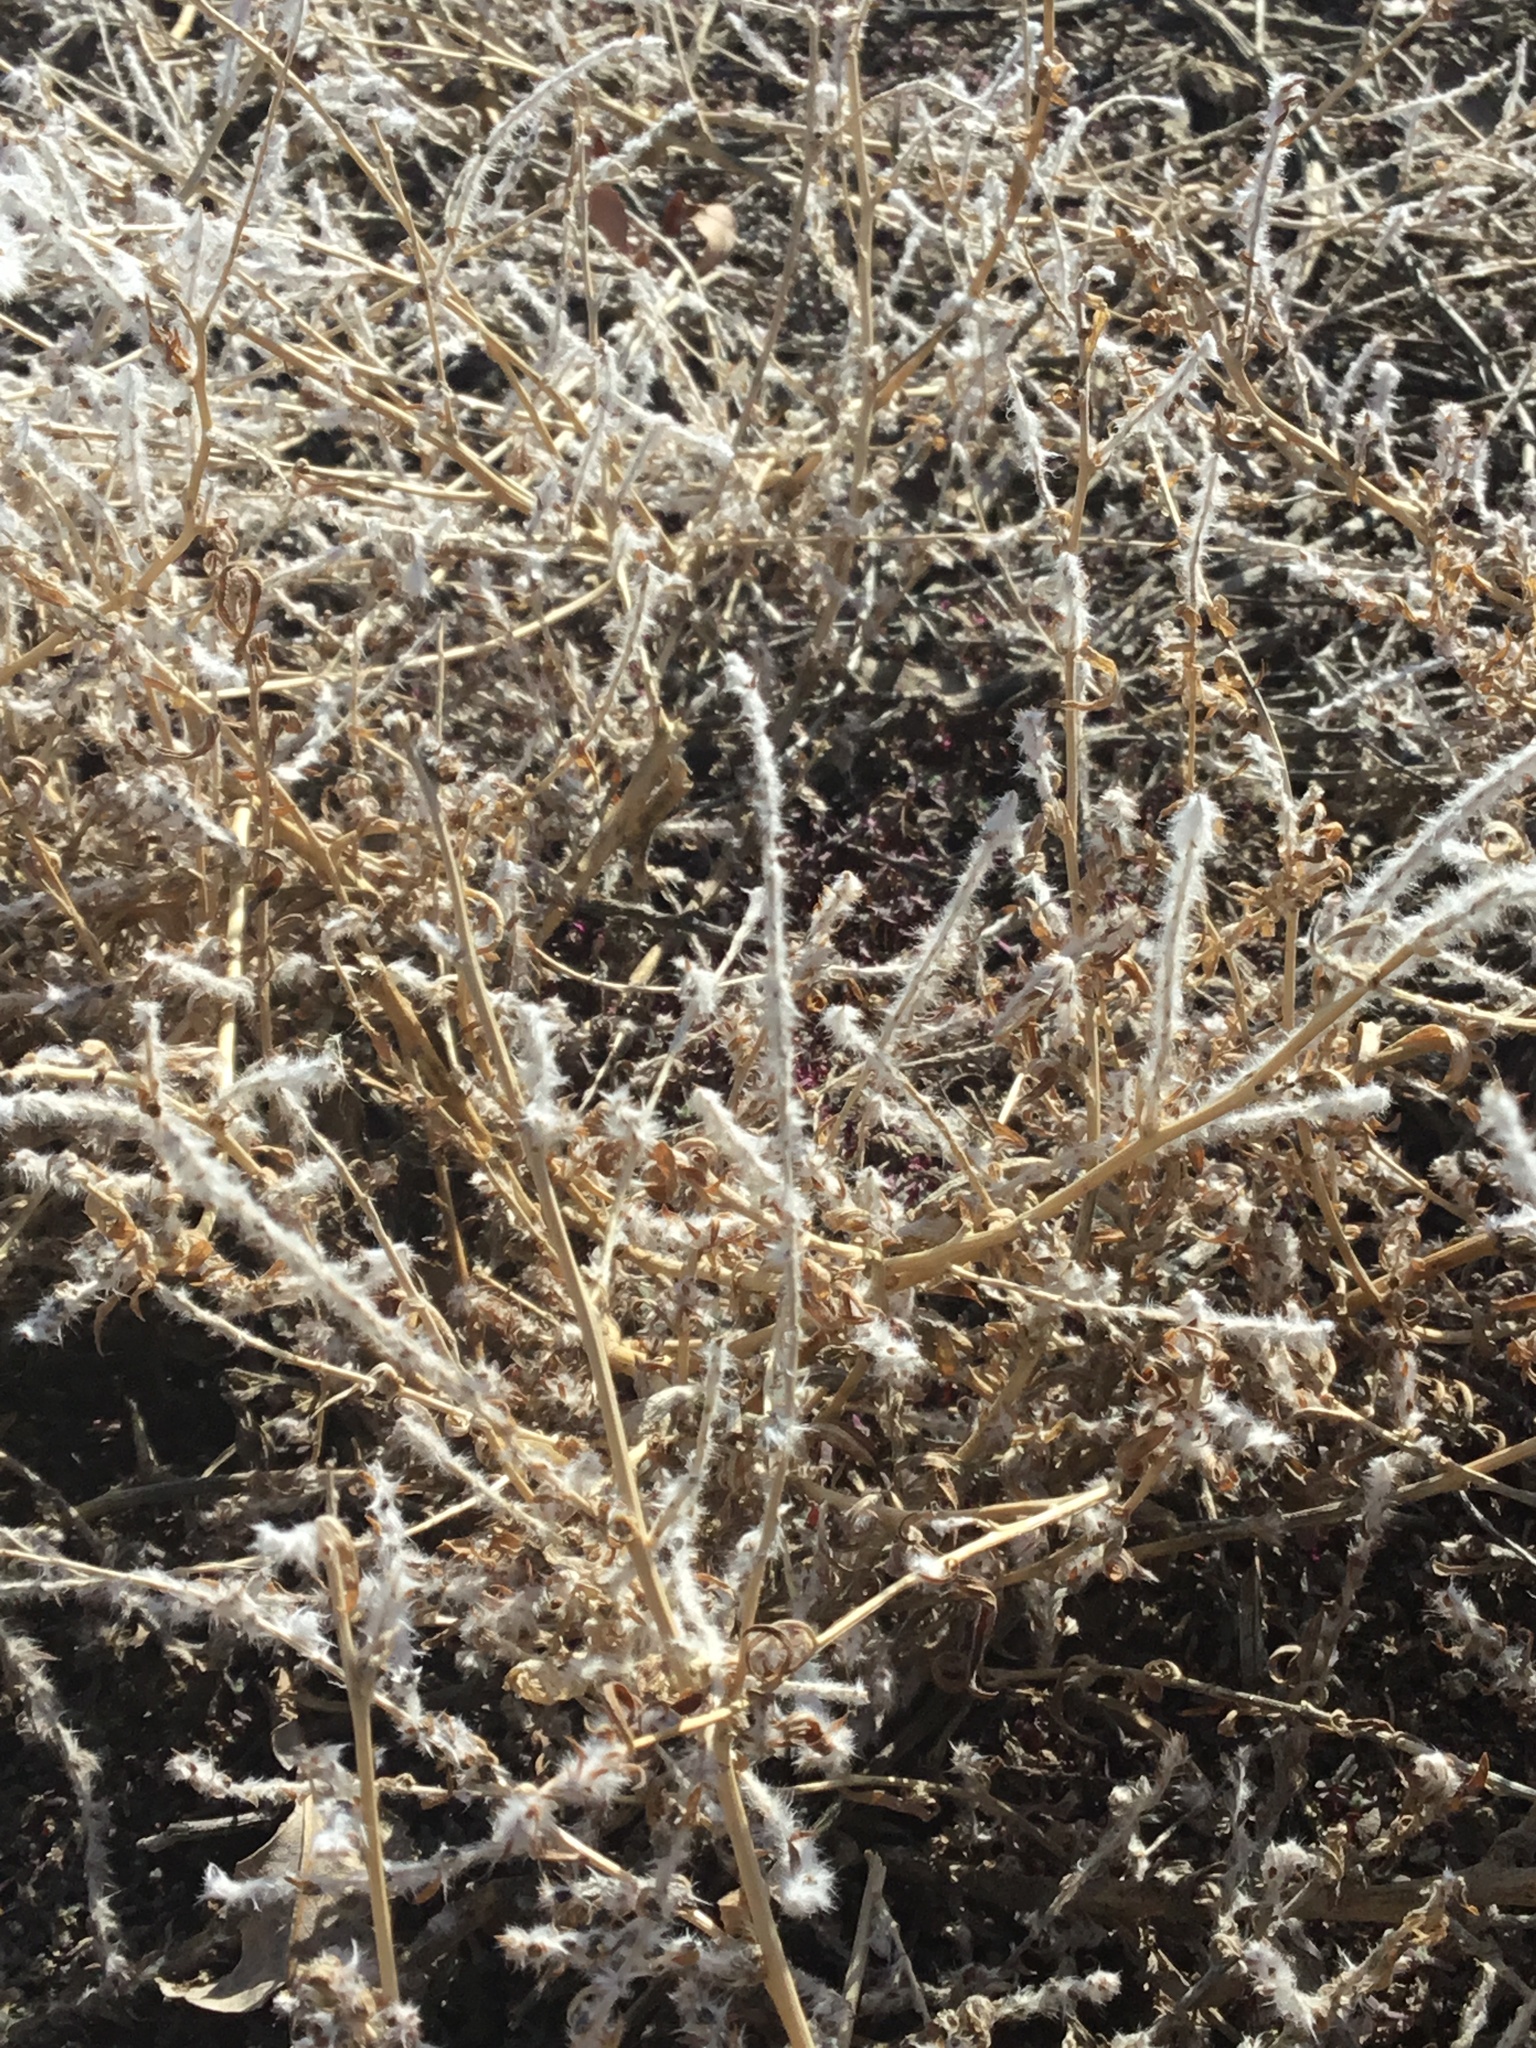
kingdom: Plantae
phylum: Tracheophyta
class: Magnoliopsida
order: Caryophyllales
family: Amaranthaceae
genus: Bassia
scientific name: Bassia scoparia
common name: Belvedere
